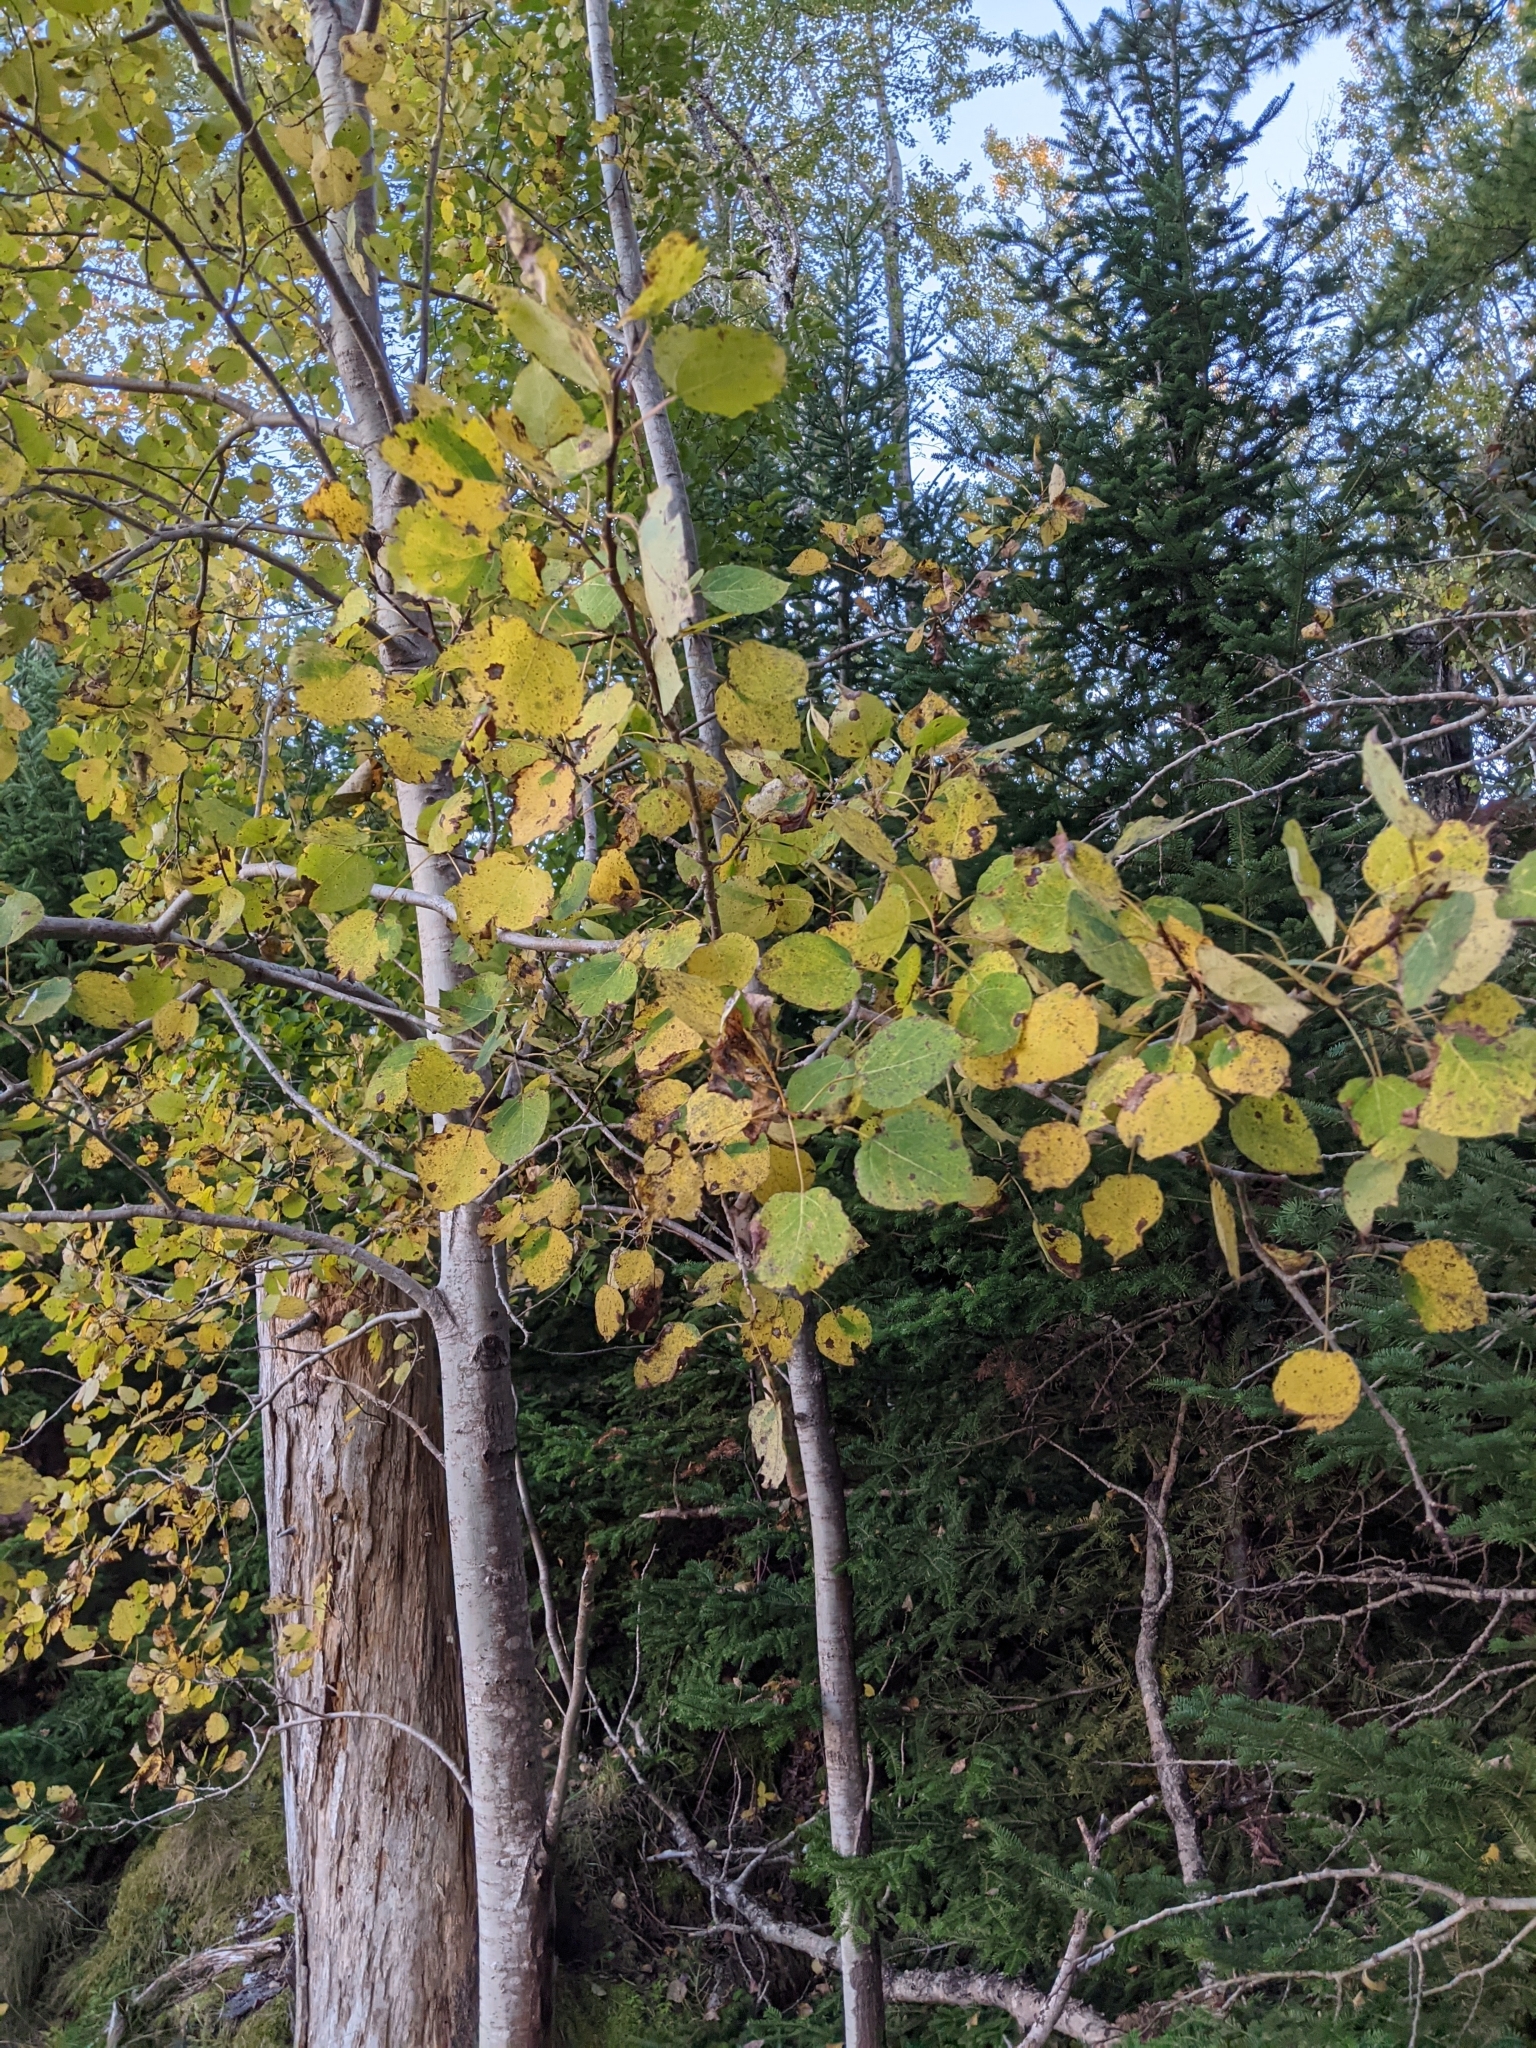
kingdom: Plantae
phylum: Tracheophyta
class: Magnoliopsida
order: Malpighiales
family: Salicaceae
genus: Populus
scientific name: Populus tremuloides
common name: Quaking aspen
